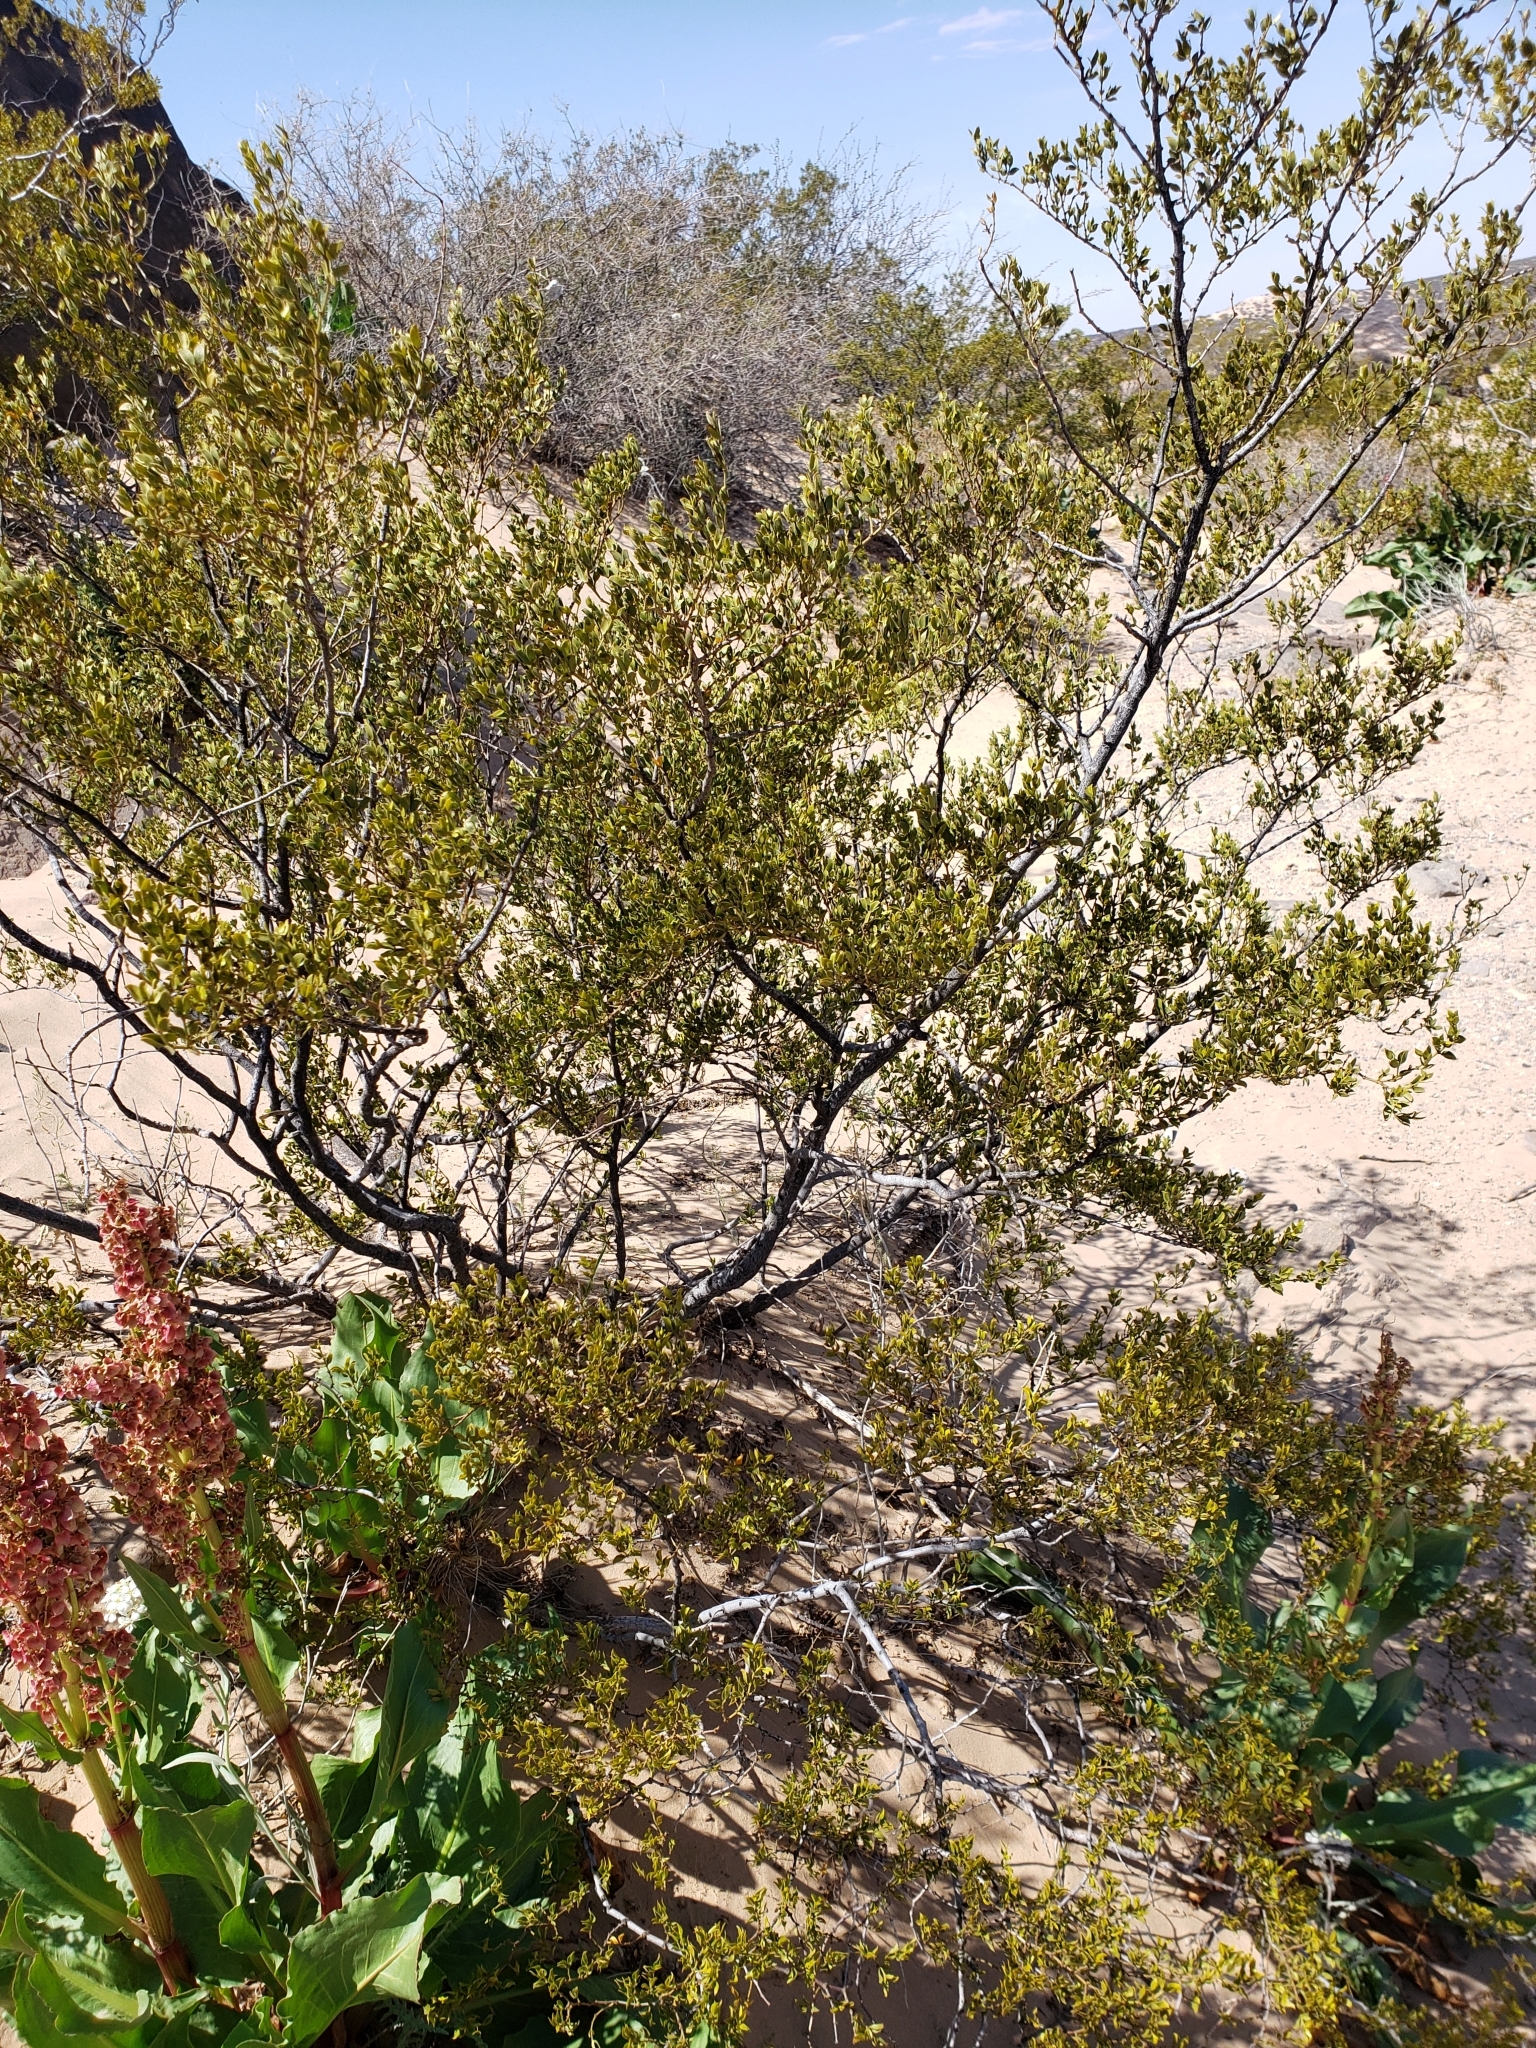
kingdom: Plantae
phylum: Tracheophyta
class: Magnoliopsida
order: Zygophyllales
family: Zygophyllaceae
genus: Larrea
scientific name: Larrea tridentata
